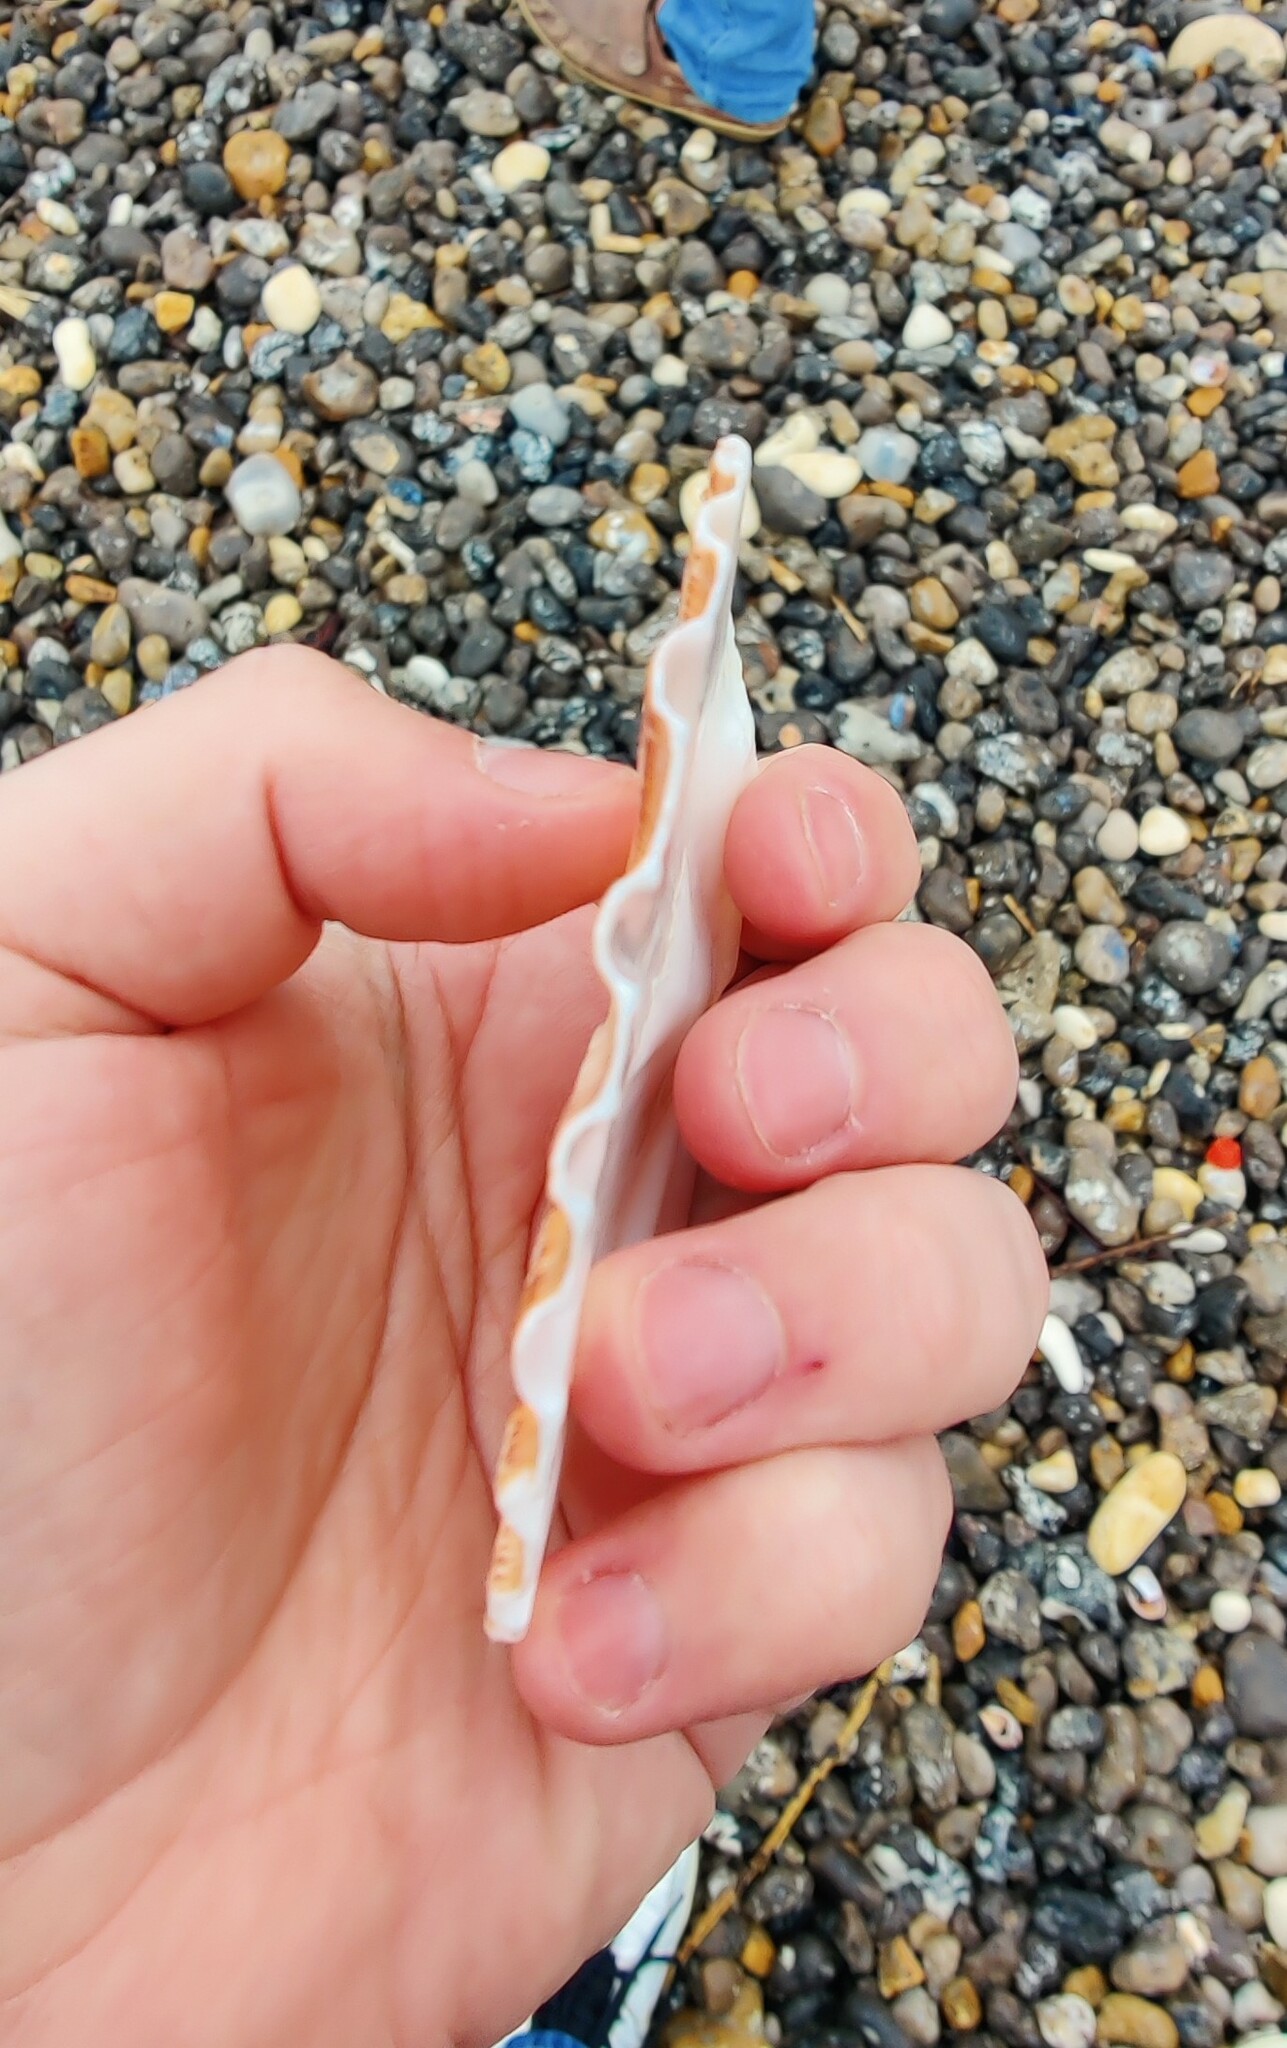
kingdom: Animalia
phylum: Mollusca
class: Bivalvia
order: Pectinida
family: Pectinidae
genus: Pecten
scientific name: Pecten maximus
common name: Great scallop
